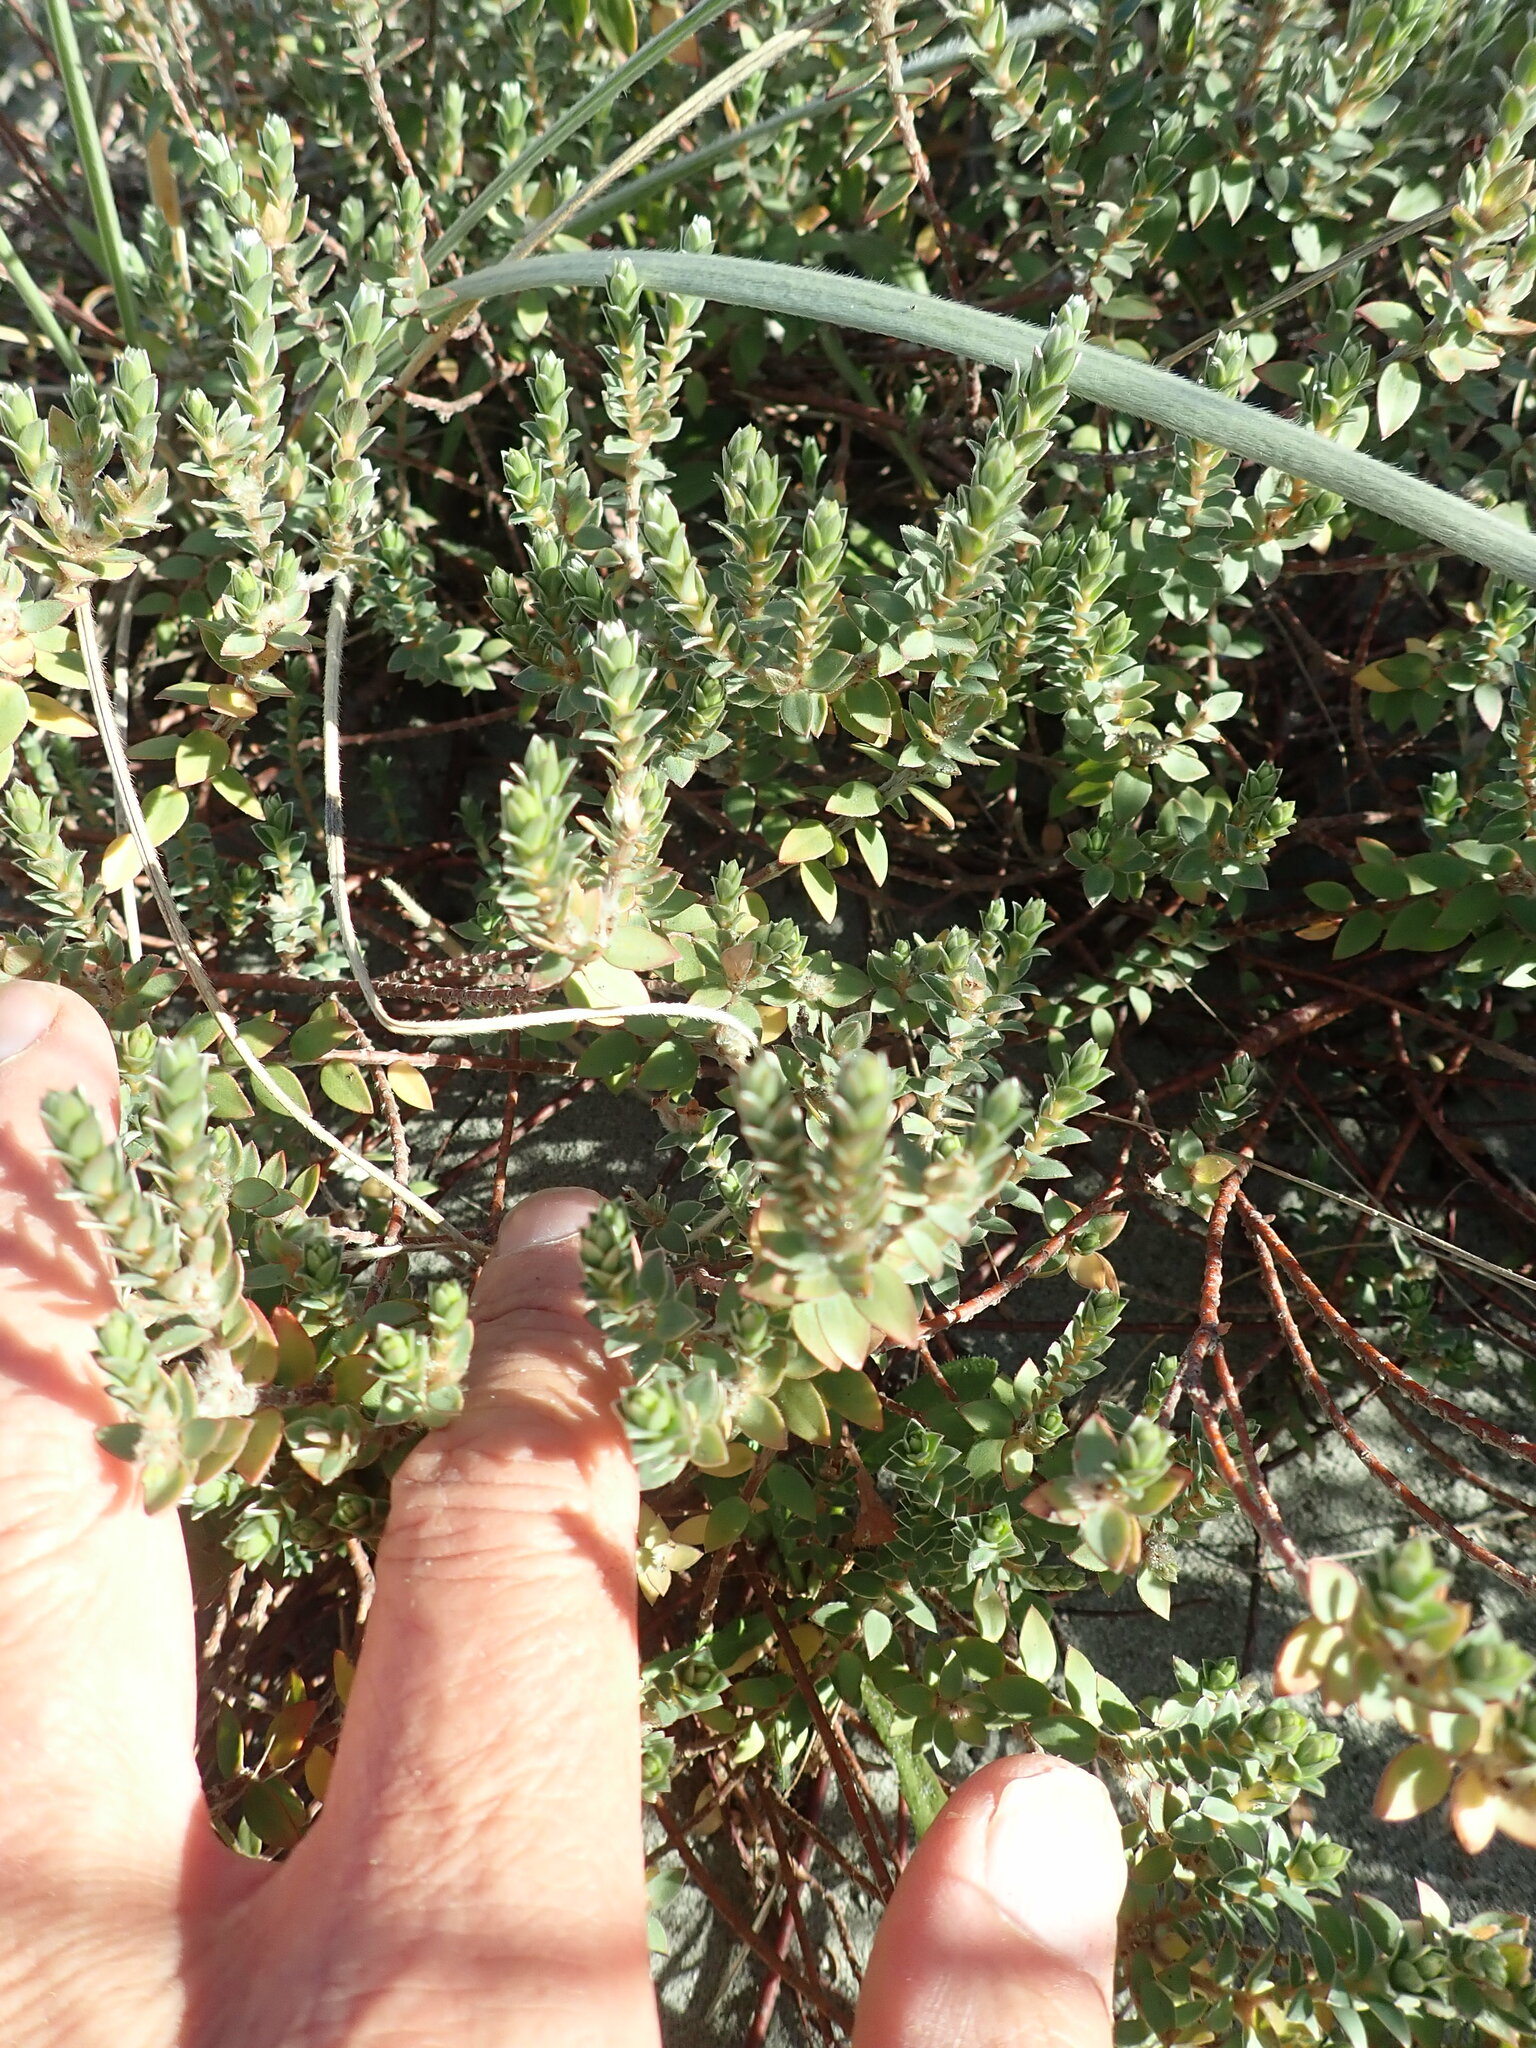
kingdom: Plantae
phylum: Tracheophyta
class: Magnoliopsida
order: Malvales
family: Thymelaeaceae
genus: Pimelea
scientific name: Pimelea villosa
